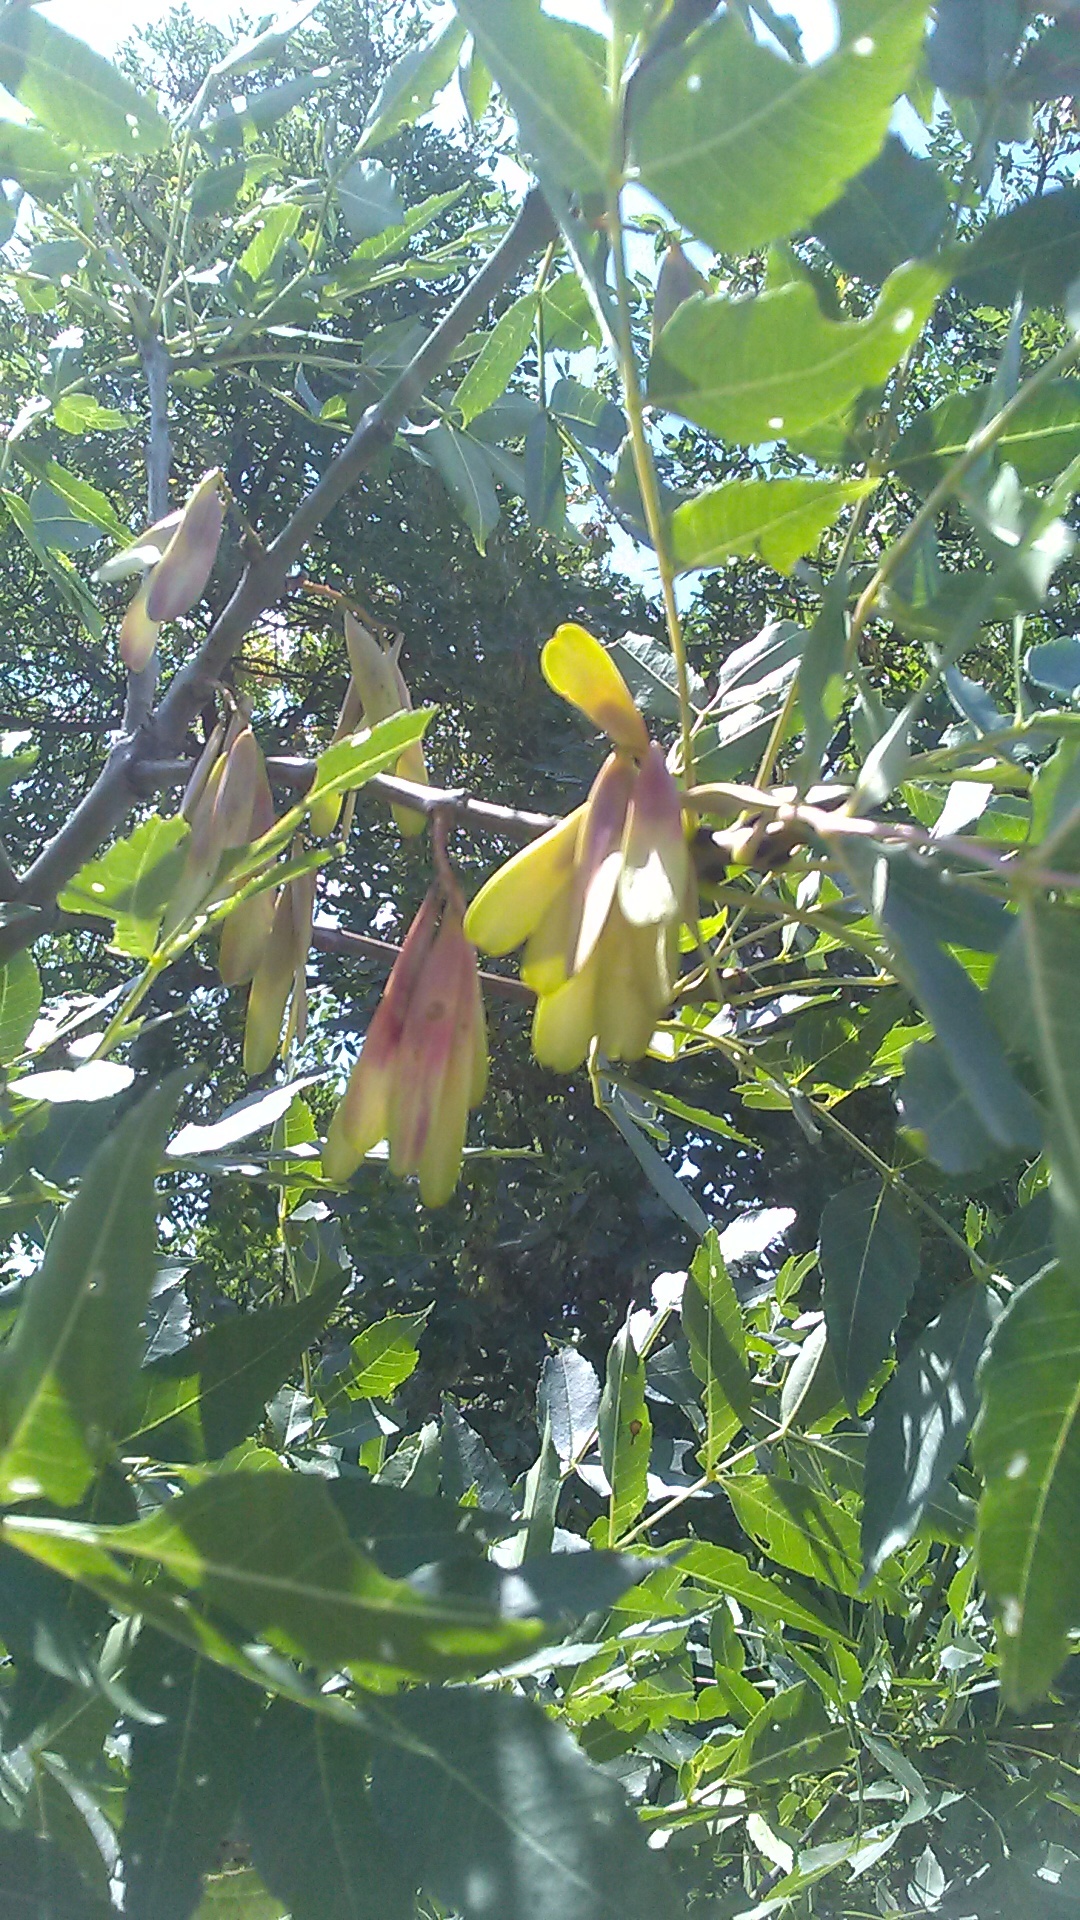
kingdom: Plantae
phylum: Tracheophyta
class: Magnoliopsida
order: Lamiales
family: Oleaceae
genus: Fraxinus
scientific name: Fraxinus excelsior
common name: European ash
